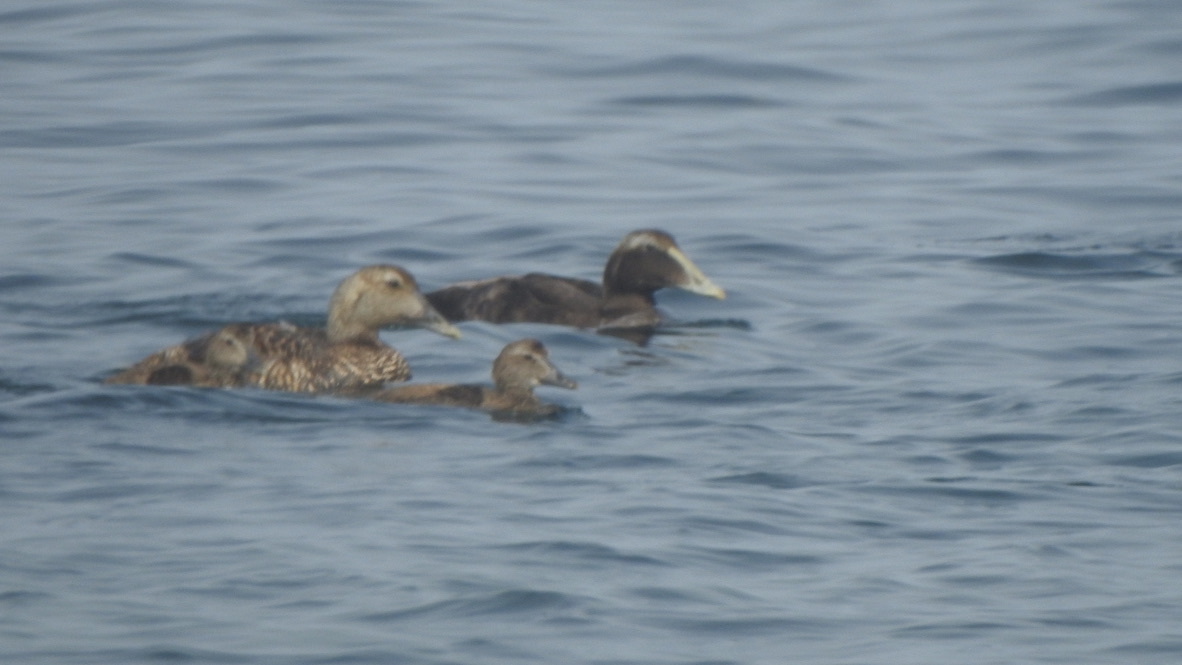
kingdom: Animalia
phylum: Chordata
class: Aves
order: Anseriformes
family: Anatidae
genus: Somateria
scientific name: Somateria mollissima
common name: Common eider
